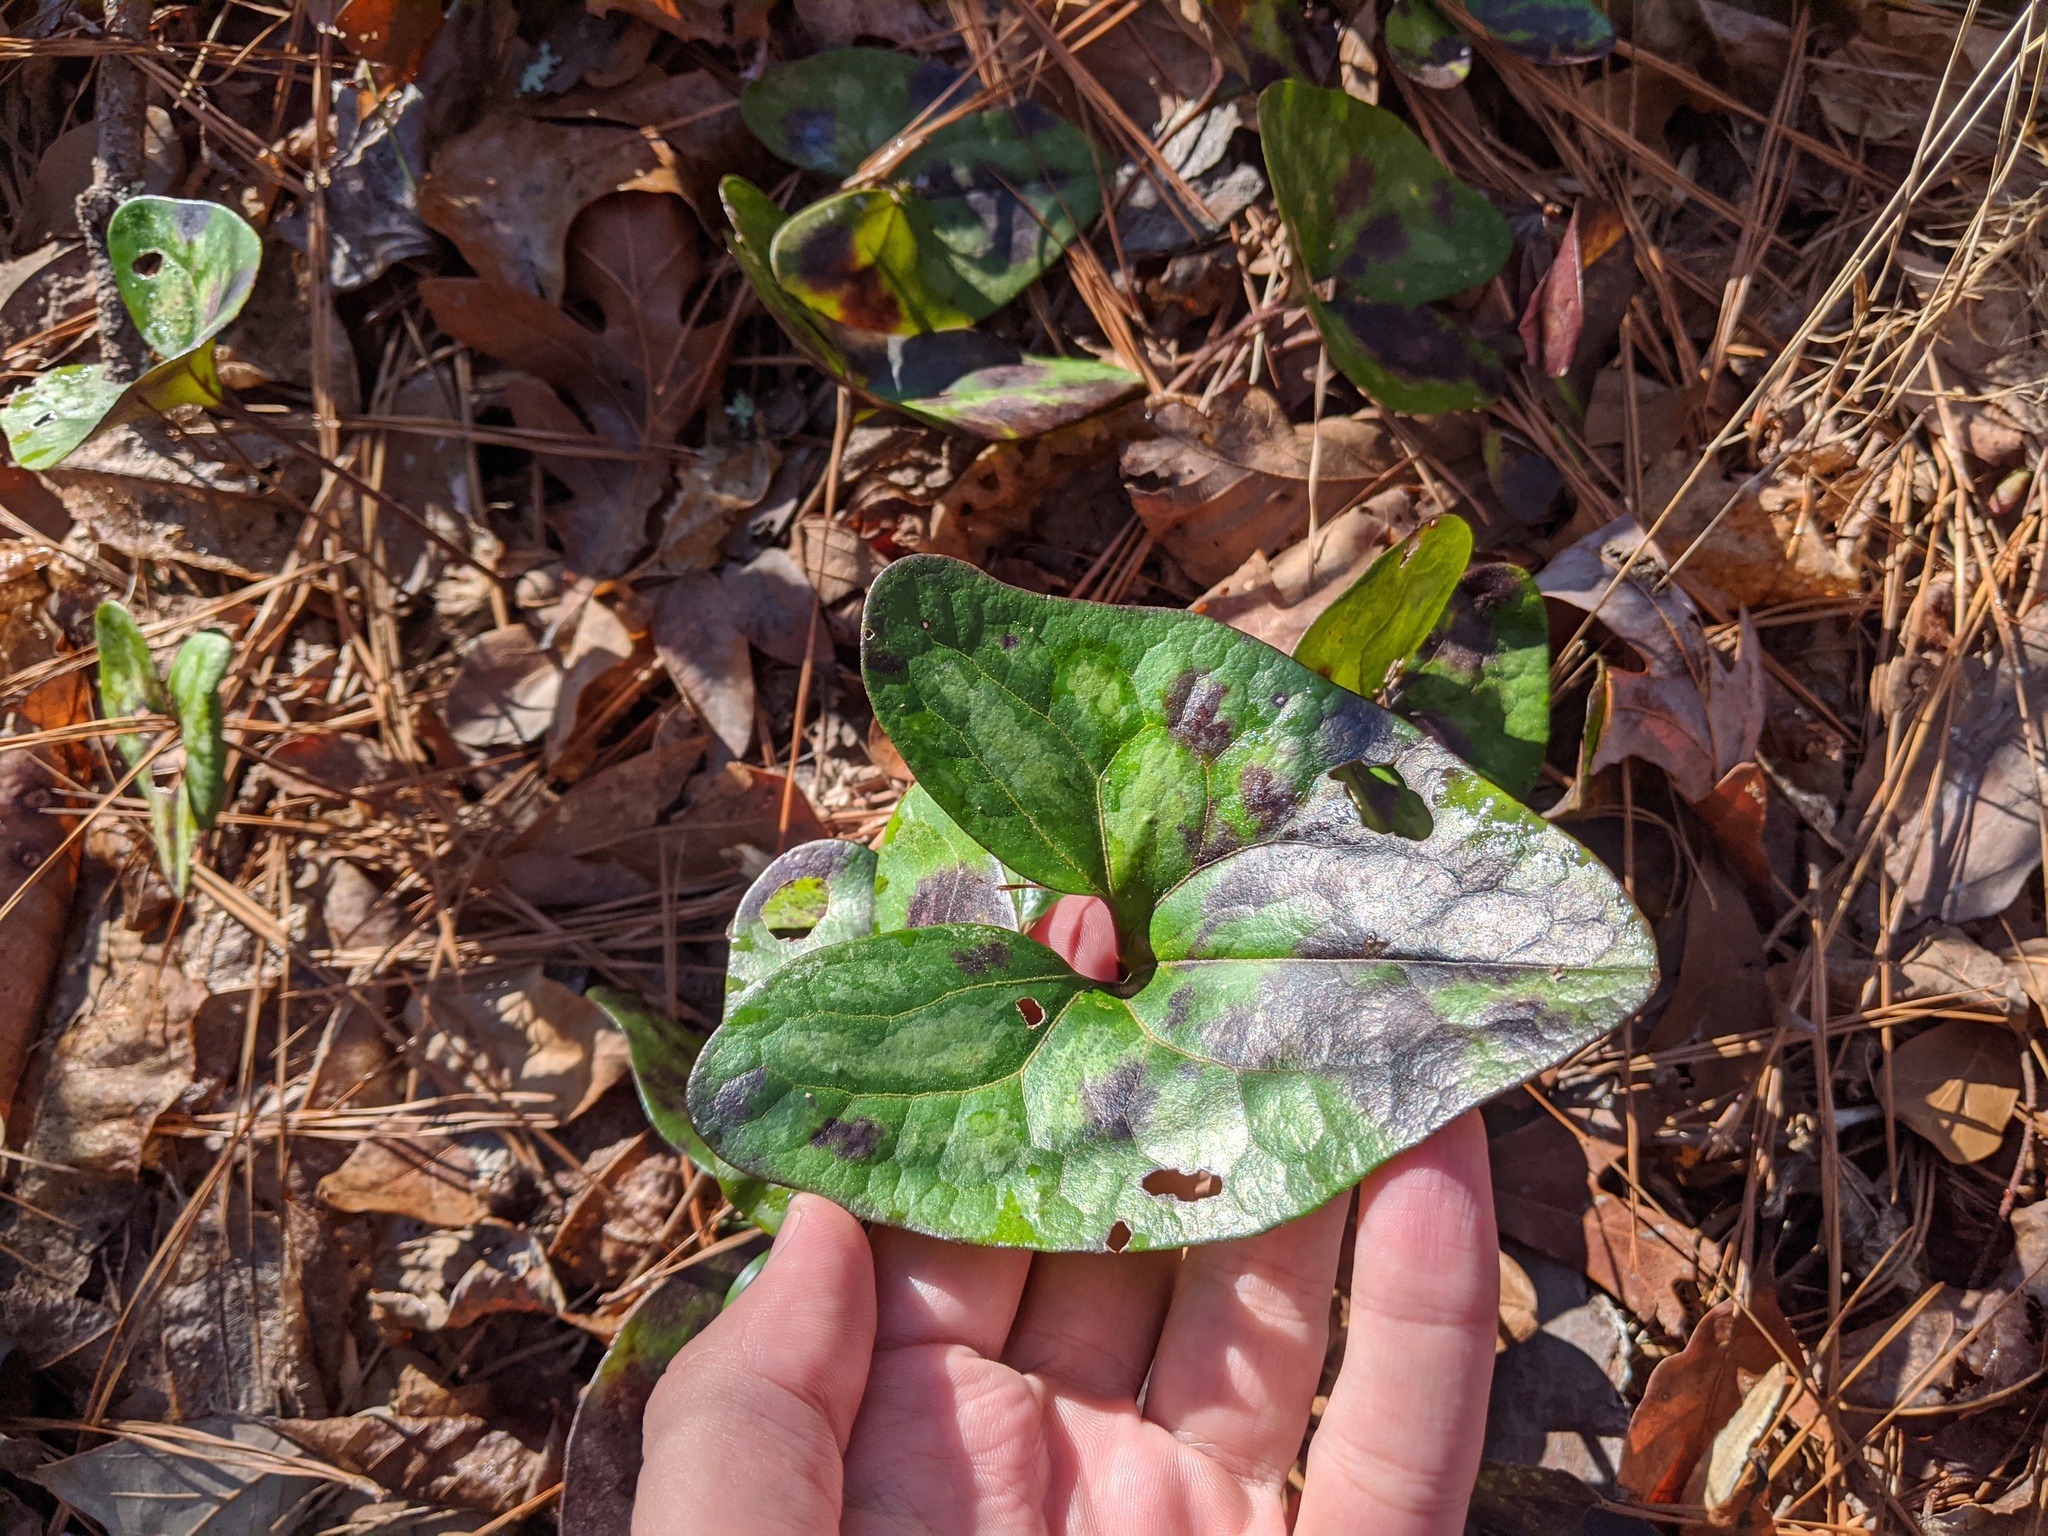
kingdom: Plantae
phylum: Tracheophyta
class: Magnoliopsida
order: Piperales
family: Aristolochiaceae
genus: Hexastylis
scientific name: Hexastylis arifolia
